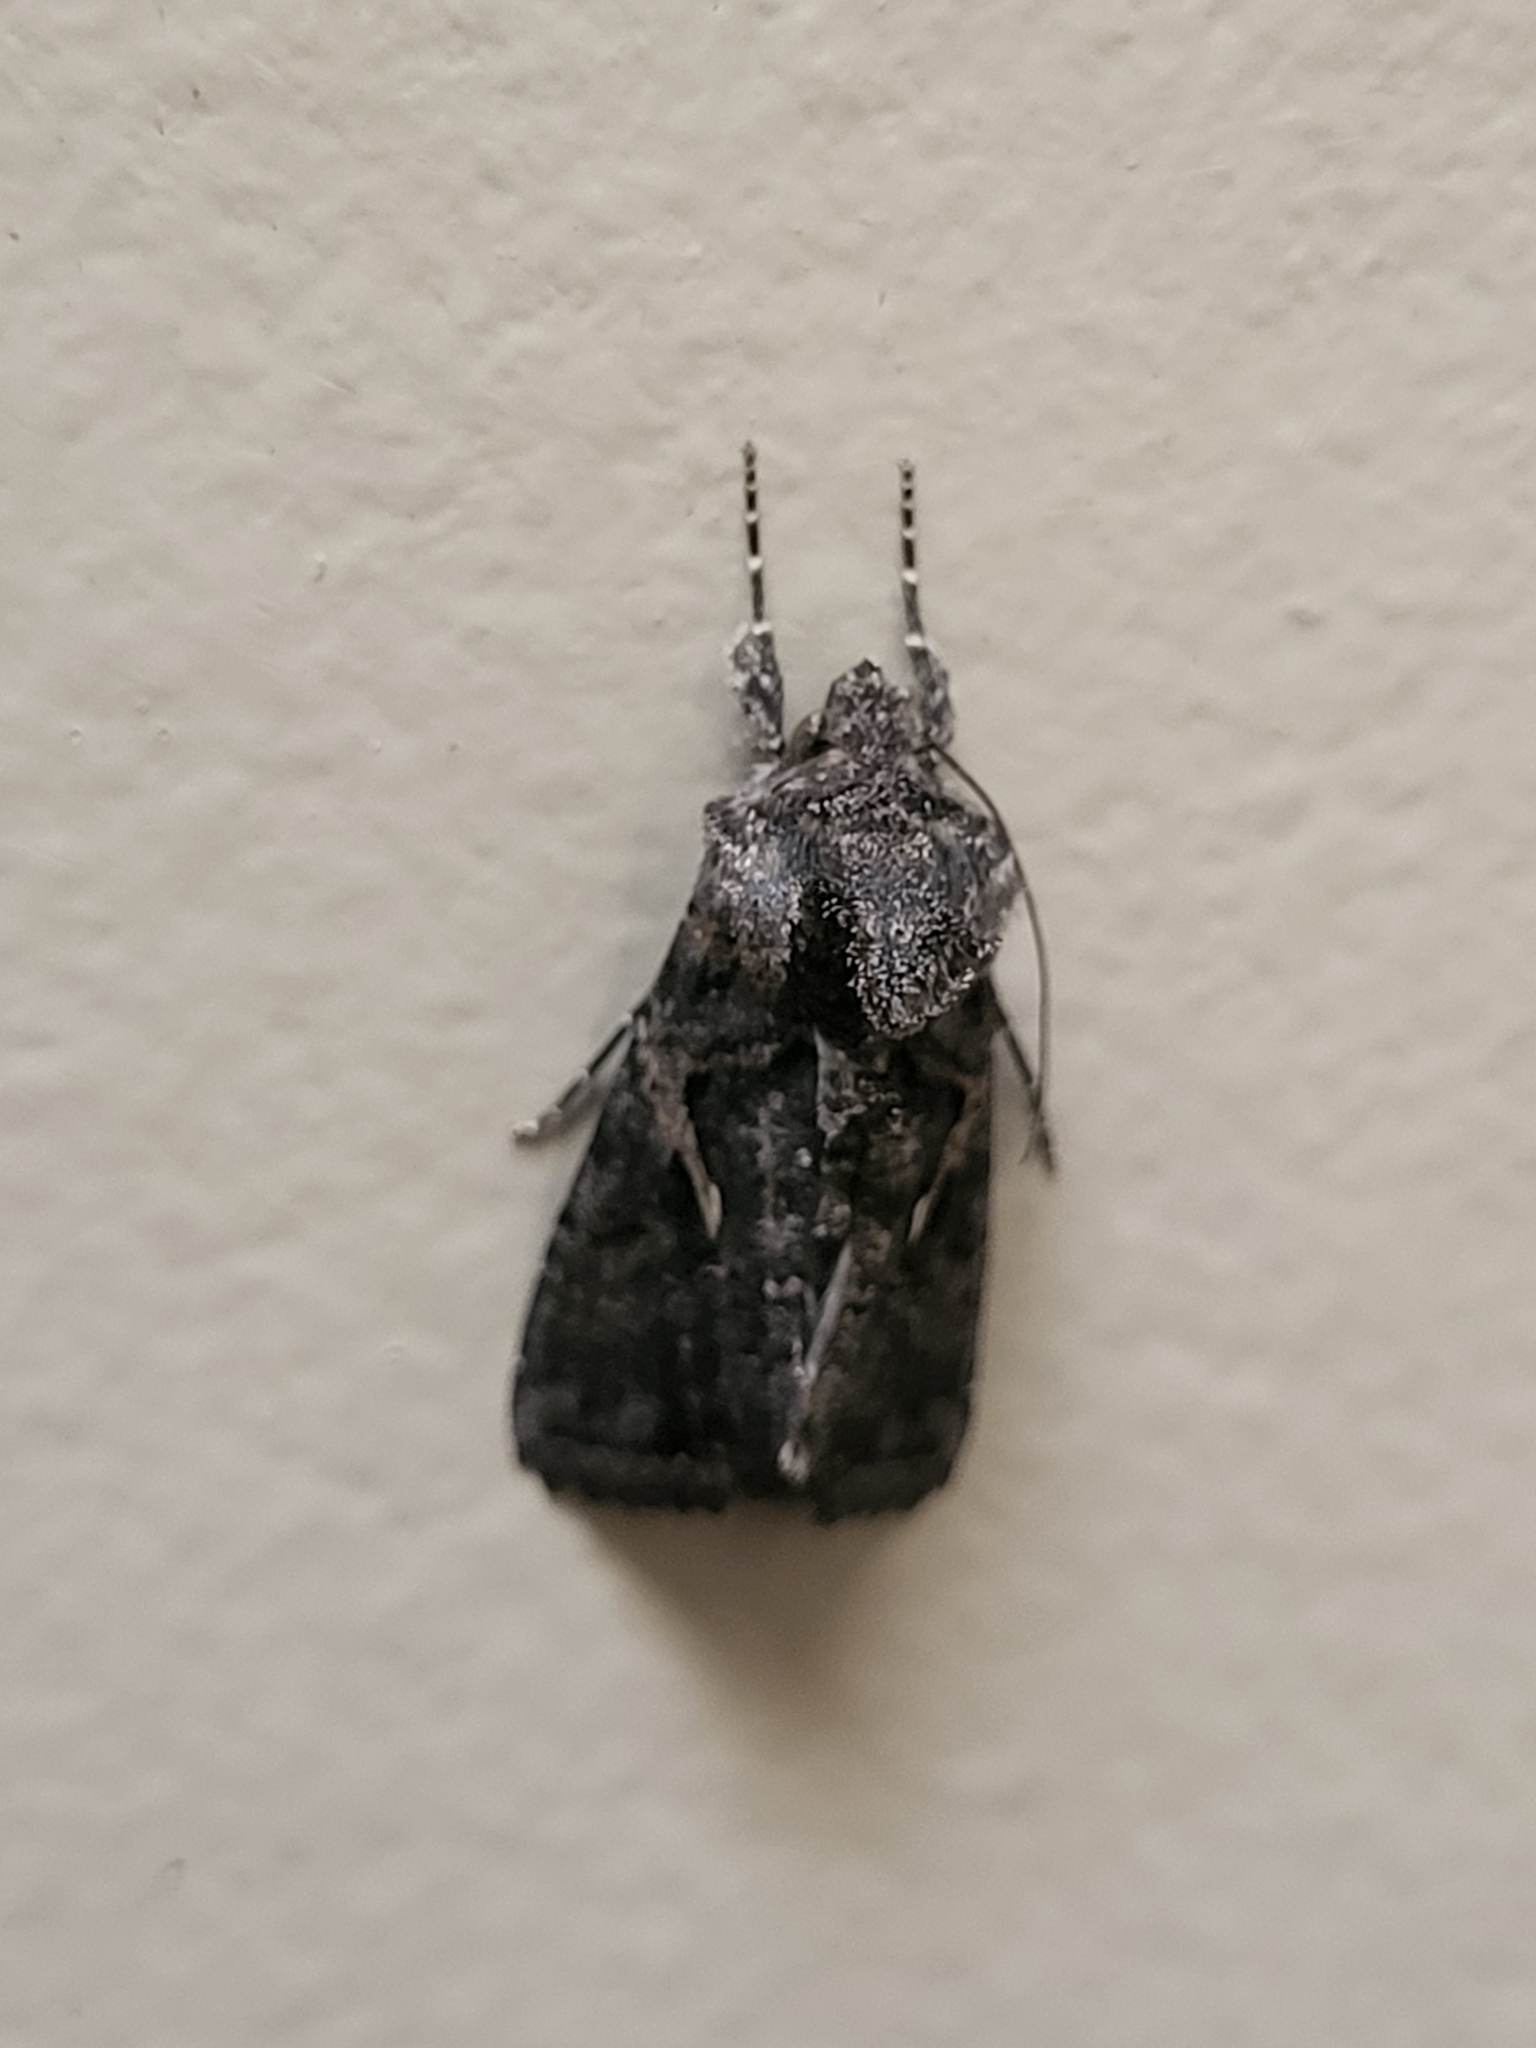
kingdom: Animalia
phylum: Arthropoda
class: Insecta
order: Lepidoptera
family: Noctuidae
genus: Ctenoplusia
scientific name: Ctenoplusia oxygramma
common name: Sharp-stigma looper moth
